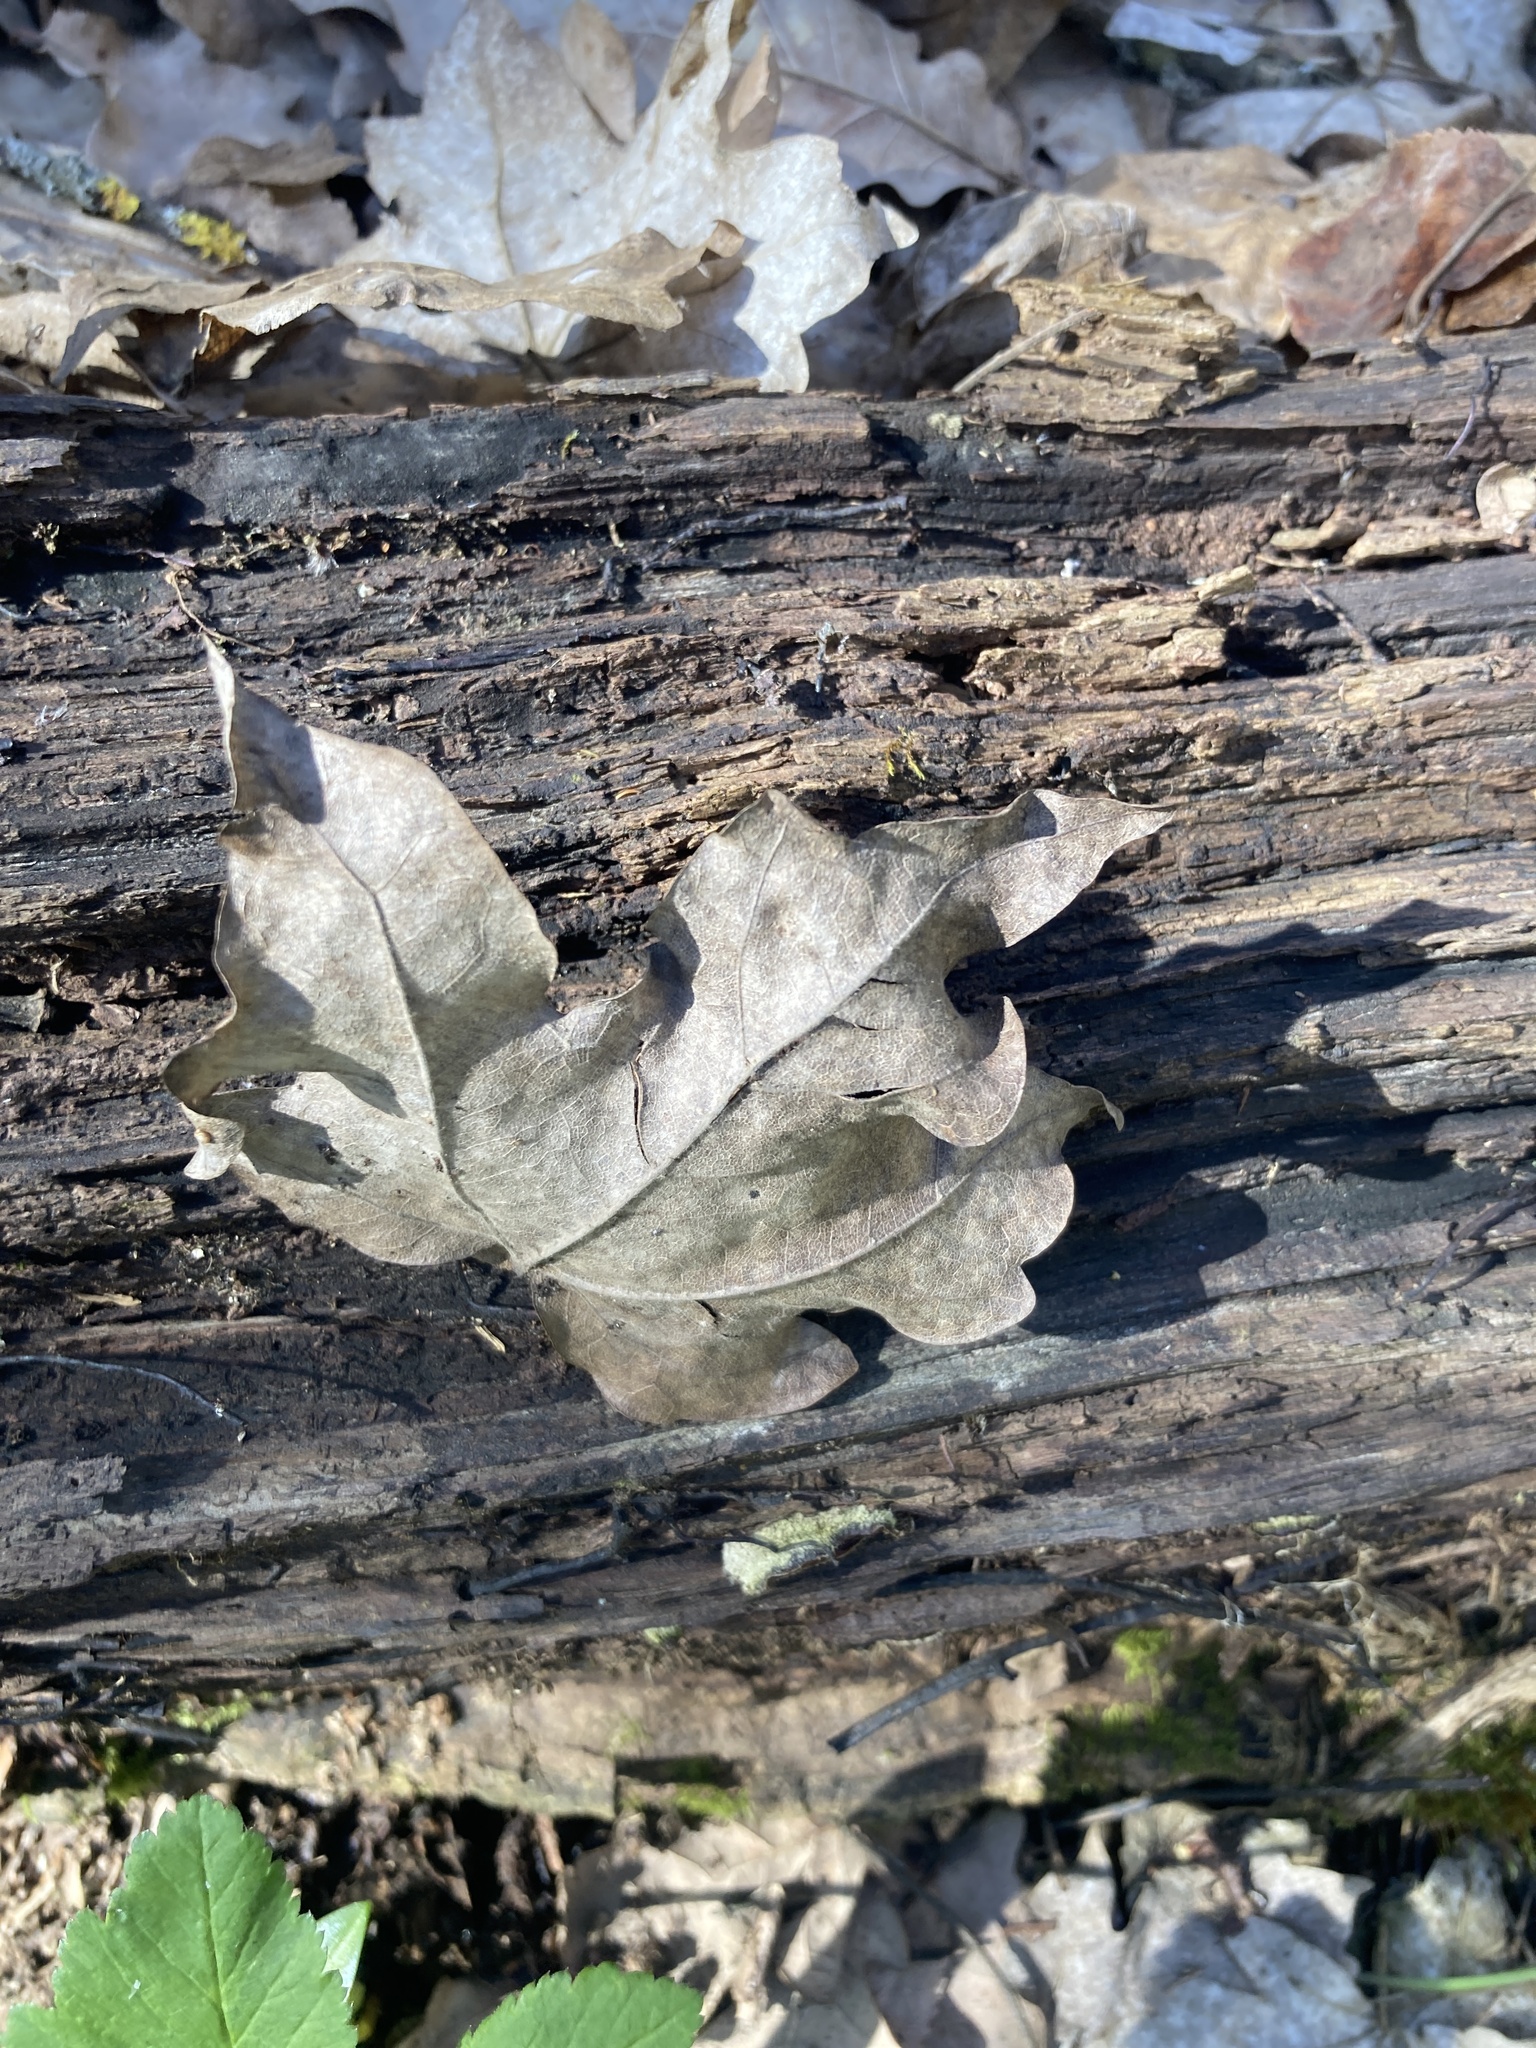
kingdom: Plantae
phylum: Tracheophyta
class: Magnoliopsida
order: Sapindales
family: Sapindaceae
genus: Acer
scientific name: Acer campestre
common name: Field maple
